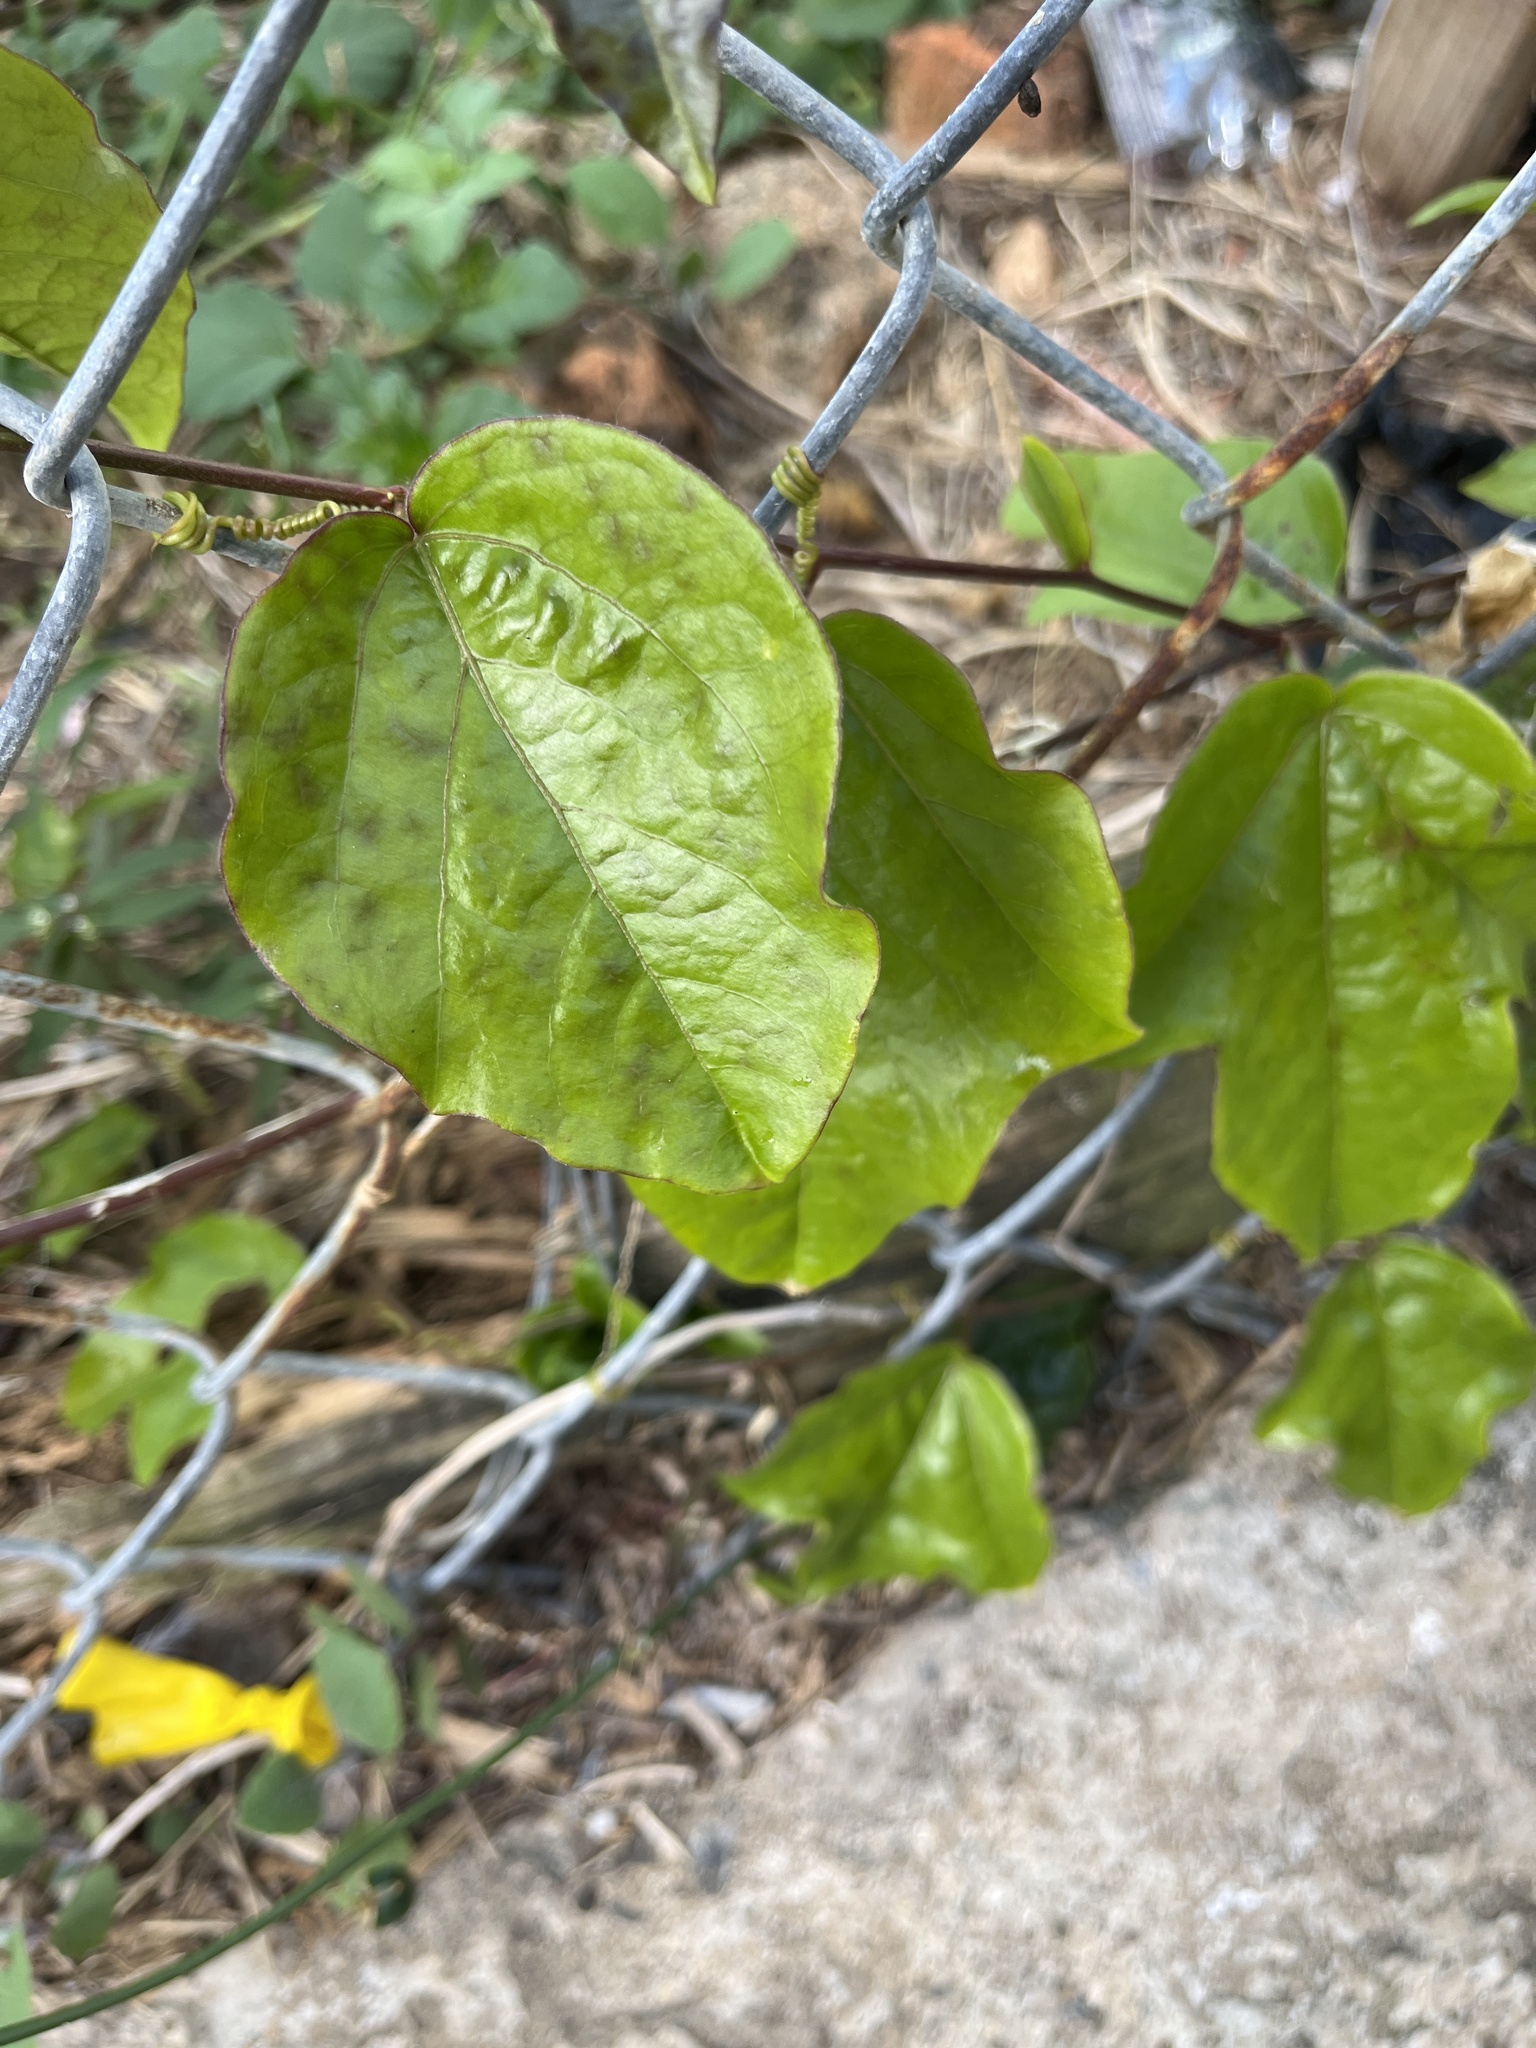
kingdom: Plantae
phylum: Tracheophyta
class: Magnoliopsida
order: Malpighiales
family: Passifloraceae
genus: Passiflora
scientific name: Passiflora suberosa
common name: Wild passionfruit
